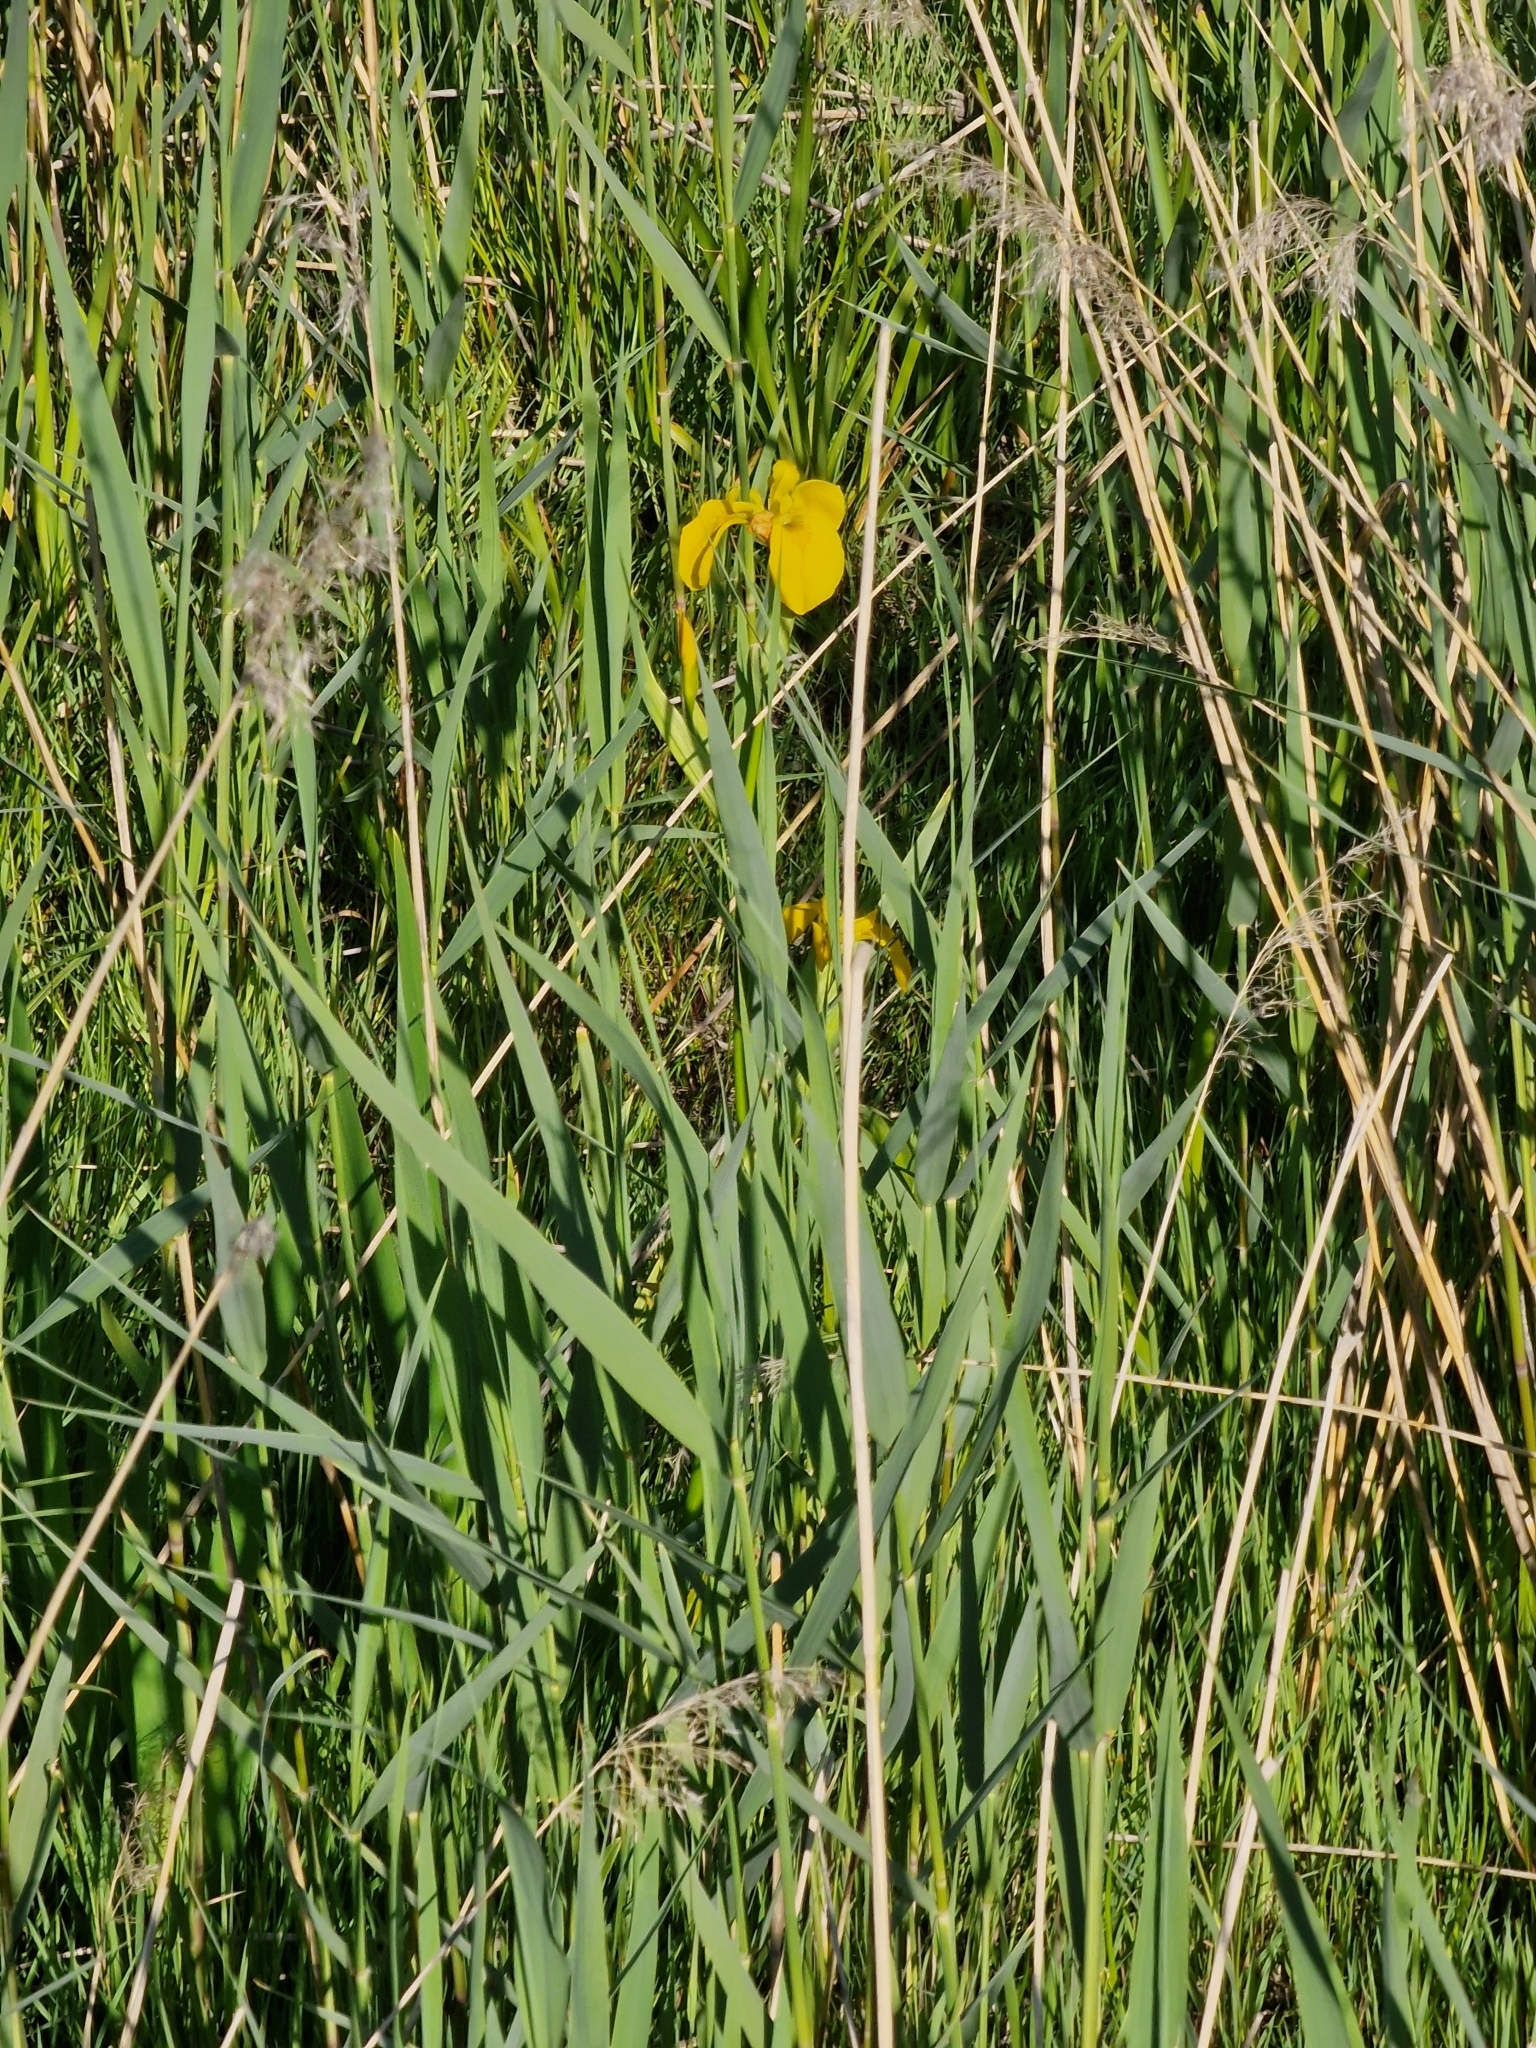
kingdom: Plantae
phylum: Tracheophyta
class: Liliopsida
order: Asparagales
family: Iridaceae
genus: Iris
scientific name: Iris pseudacorus
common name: Yellow flag
